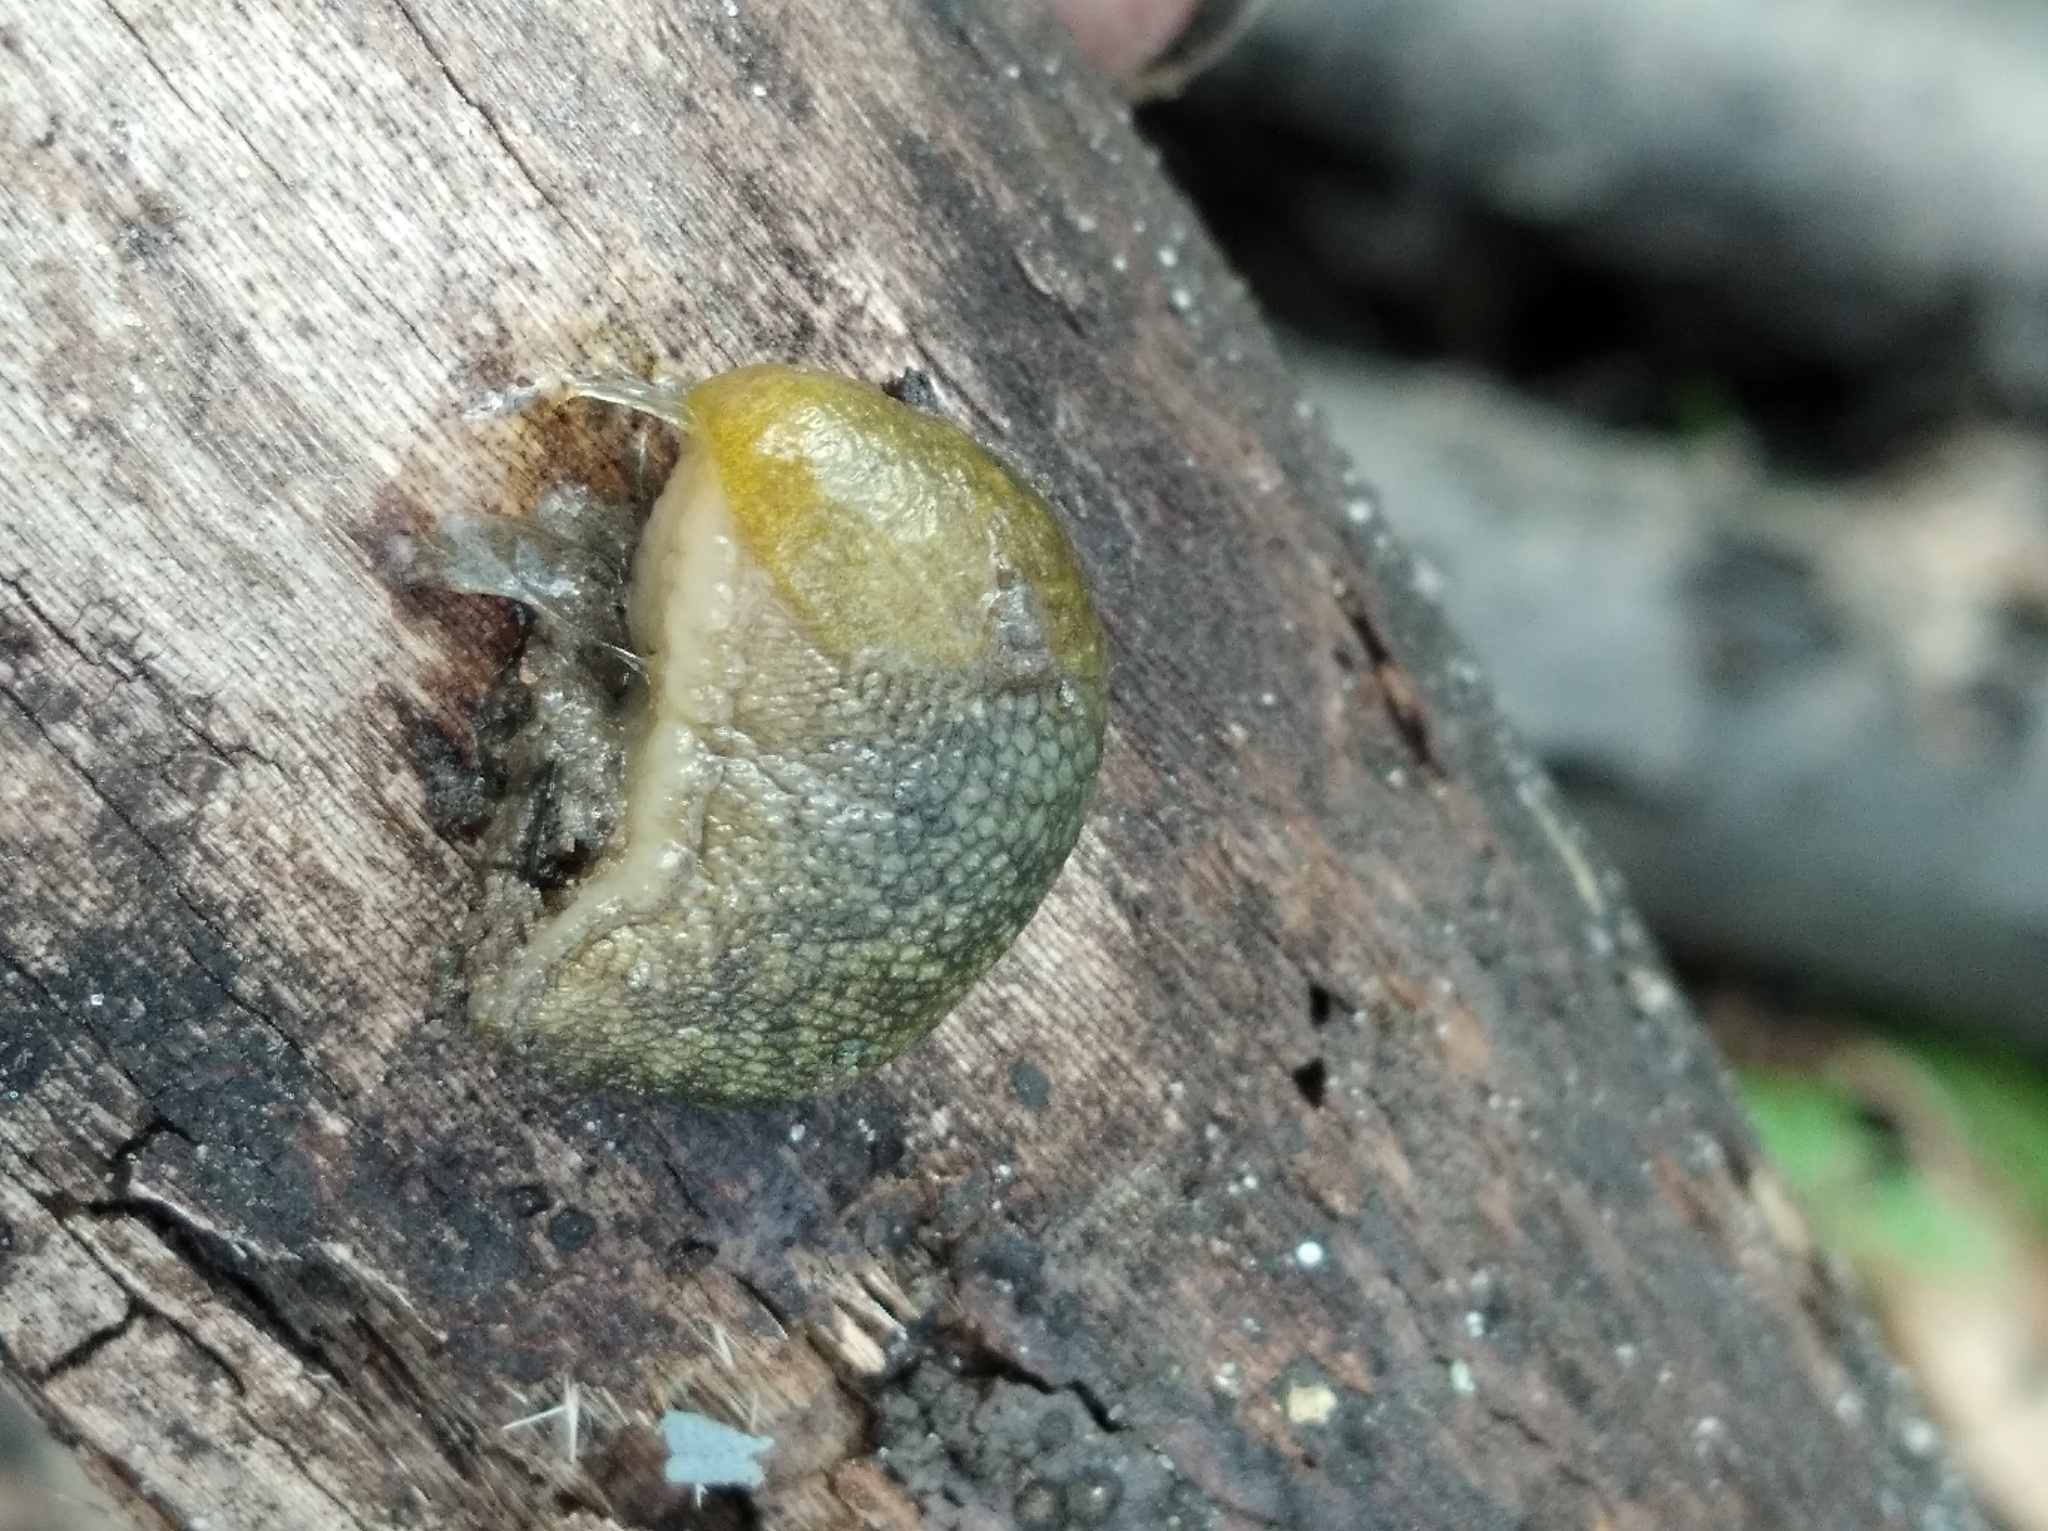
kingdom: Animalia
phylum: Mollusca
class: Gastropoda
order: Stylommatophora
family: Limacidae
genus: Limacus
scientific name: Limacus
